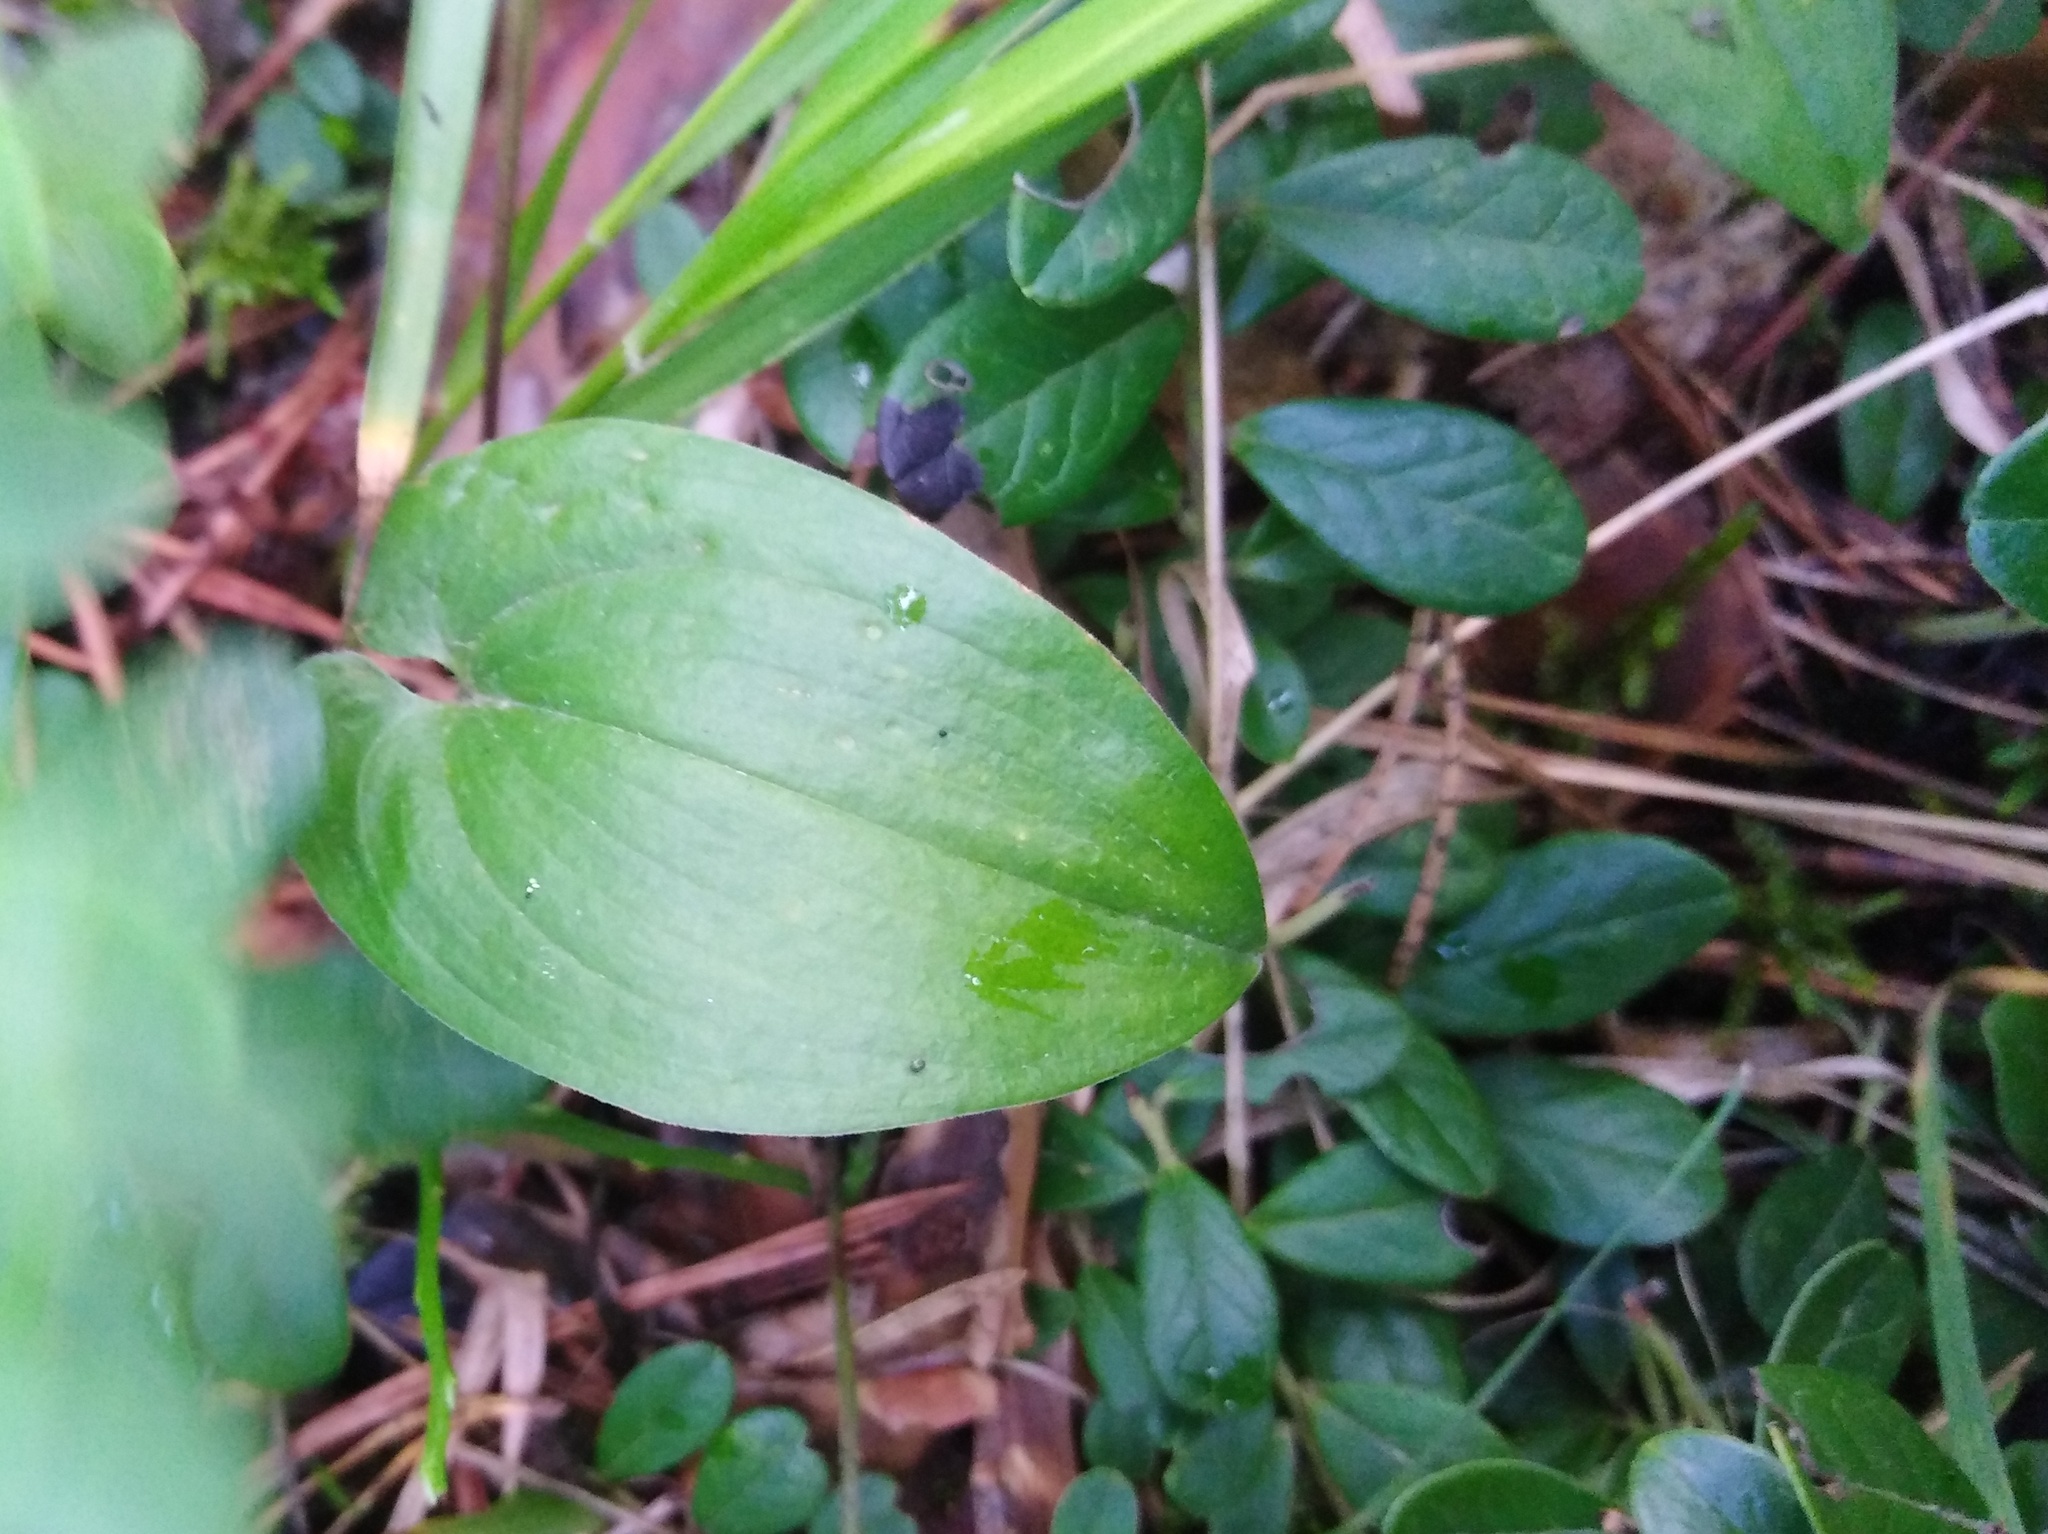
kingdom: Plantae
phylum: Tracheophyta
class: Liliopsida
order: Asparagales
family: Asparagaceae
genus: Maianthemum
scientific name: Maianthemum bifolium
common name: May lily
